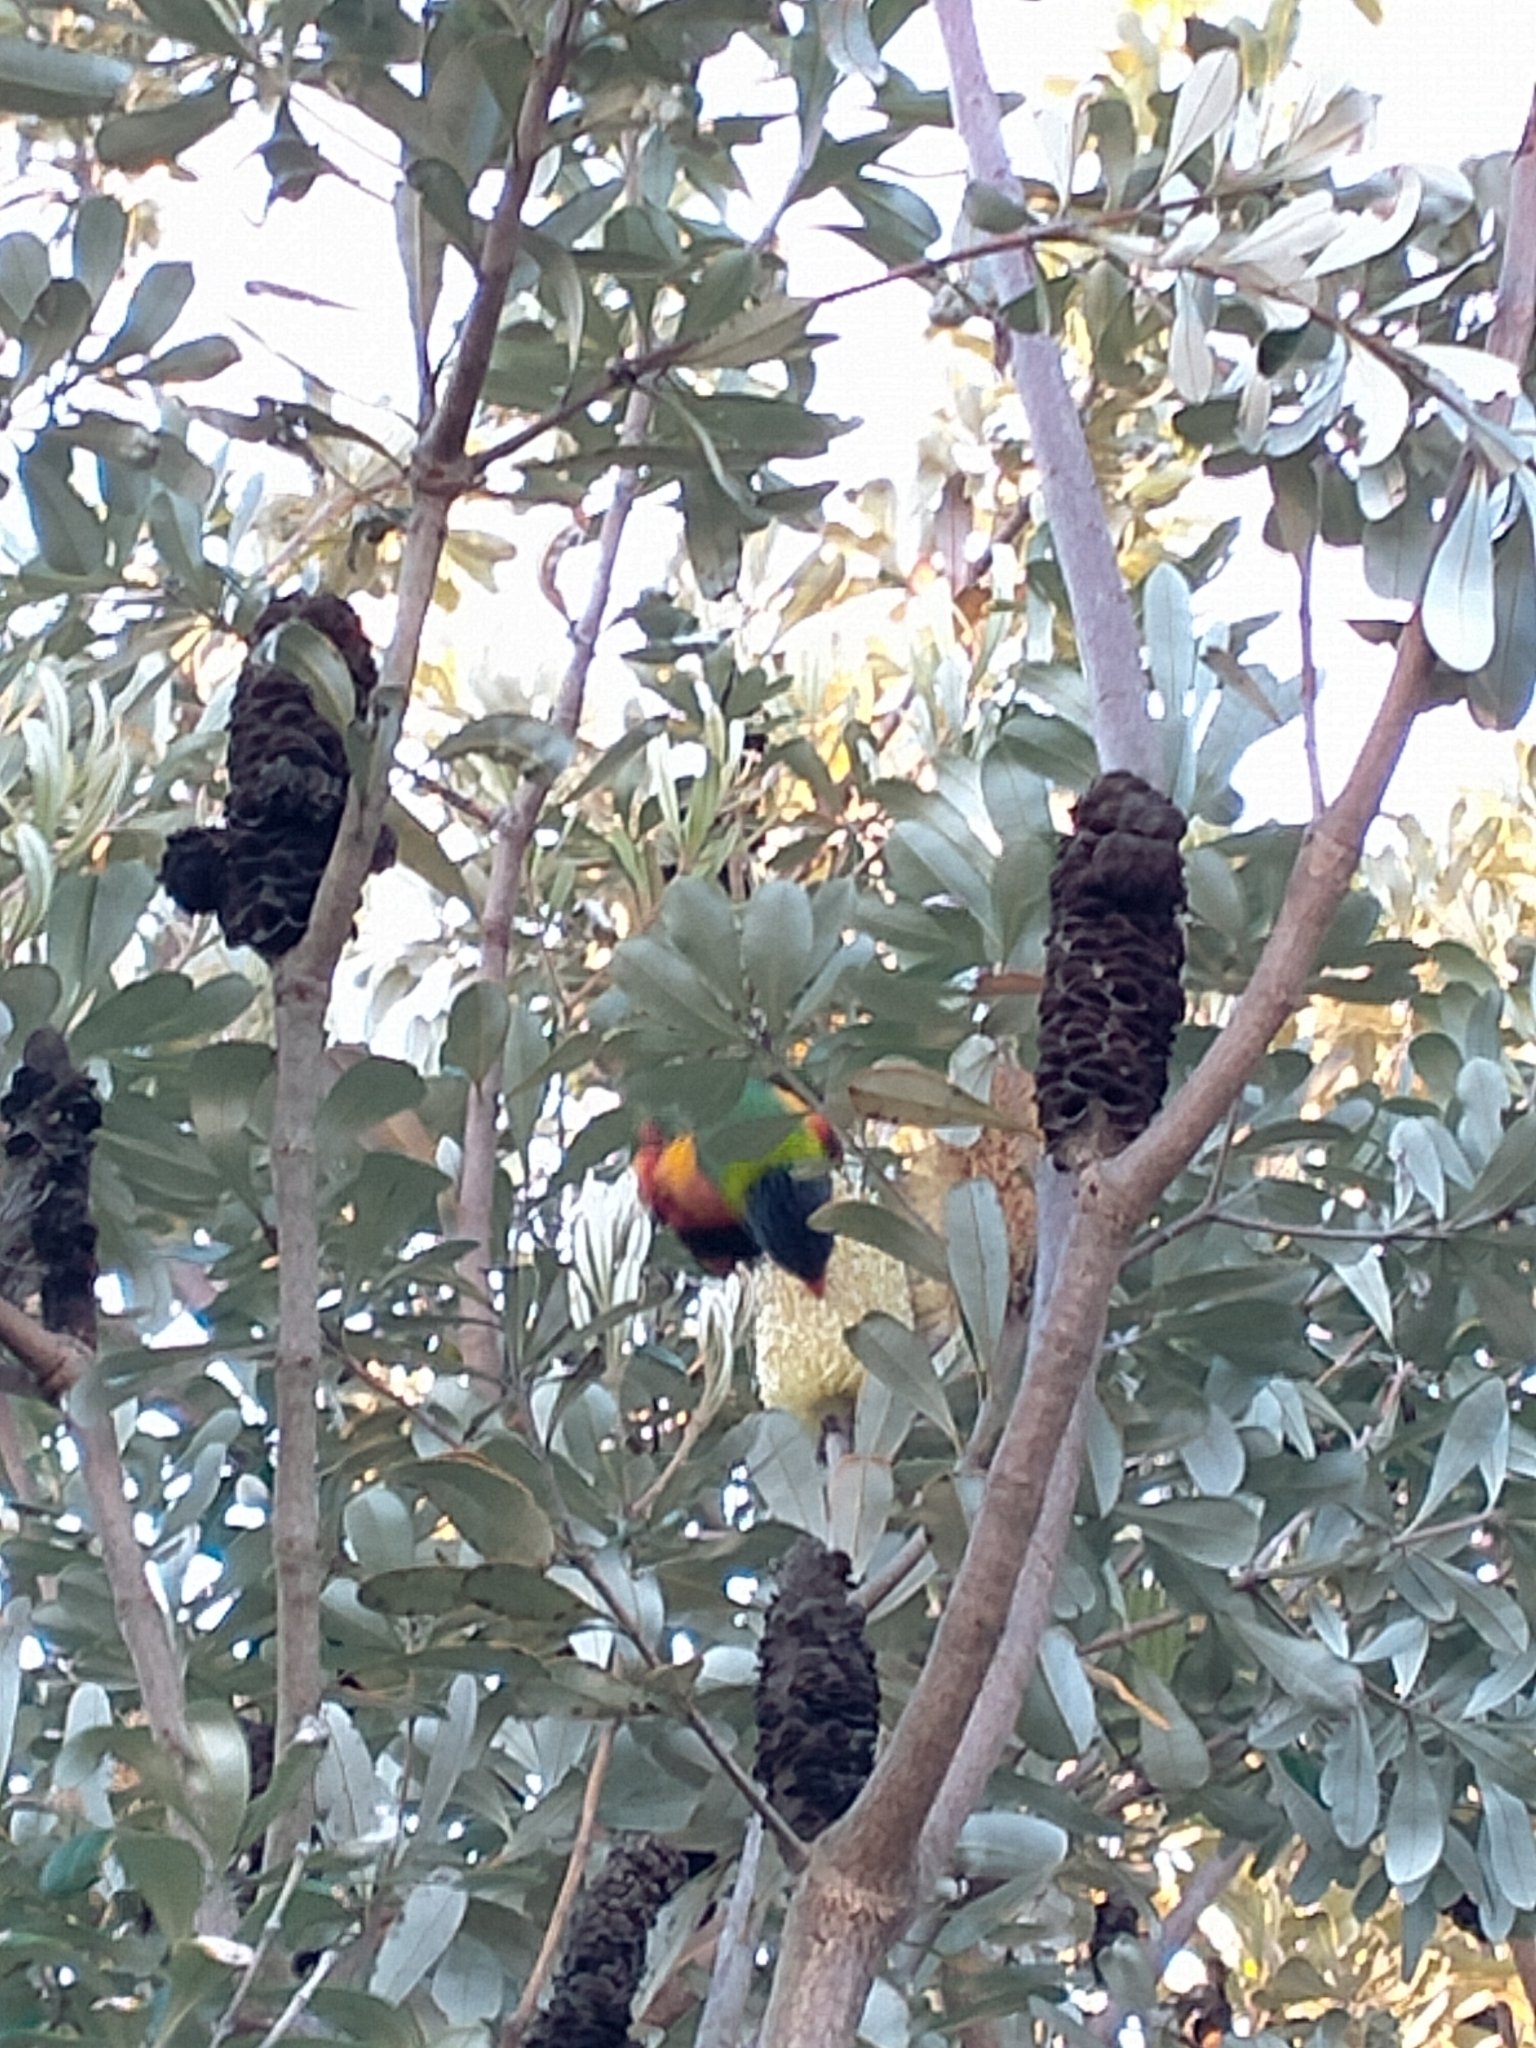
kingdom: Animalia
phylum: Chordata
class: Aves
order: Psittaciformes
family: Psittacidae
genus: Trichoglossus
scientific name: Trichoglossus haematodus
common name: Coconut lorikeet
